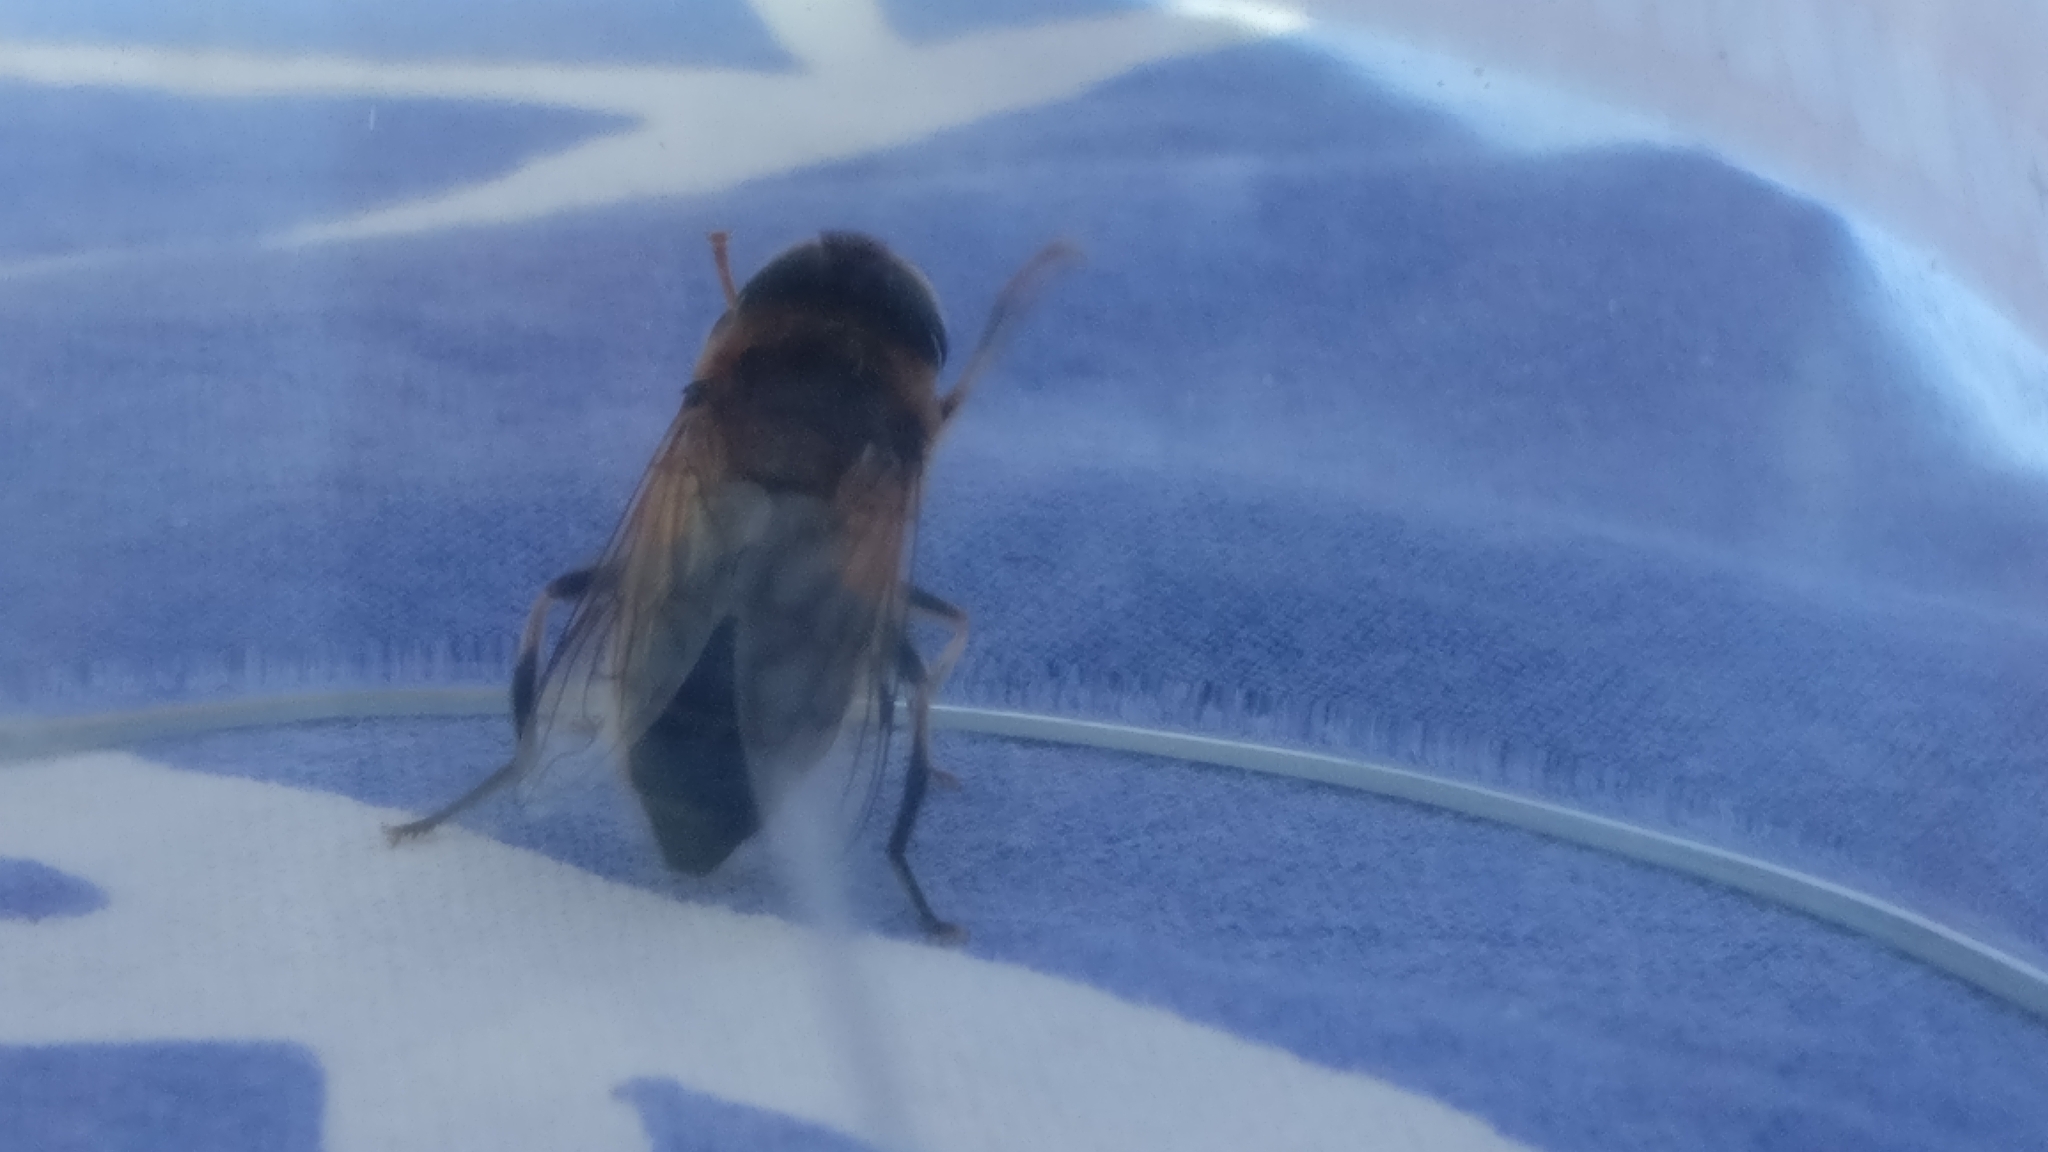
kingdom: Animalia
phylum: Arthropoda
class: Insecta
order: Diptera
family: Syrphidae
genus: Eristalis
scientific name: Eristalis pertinax
